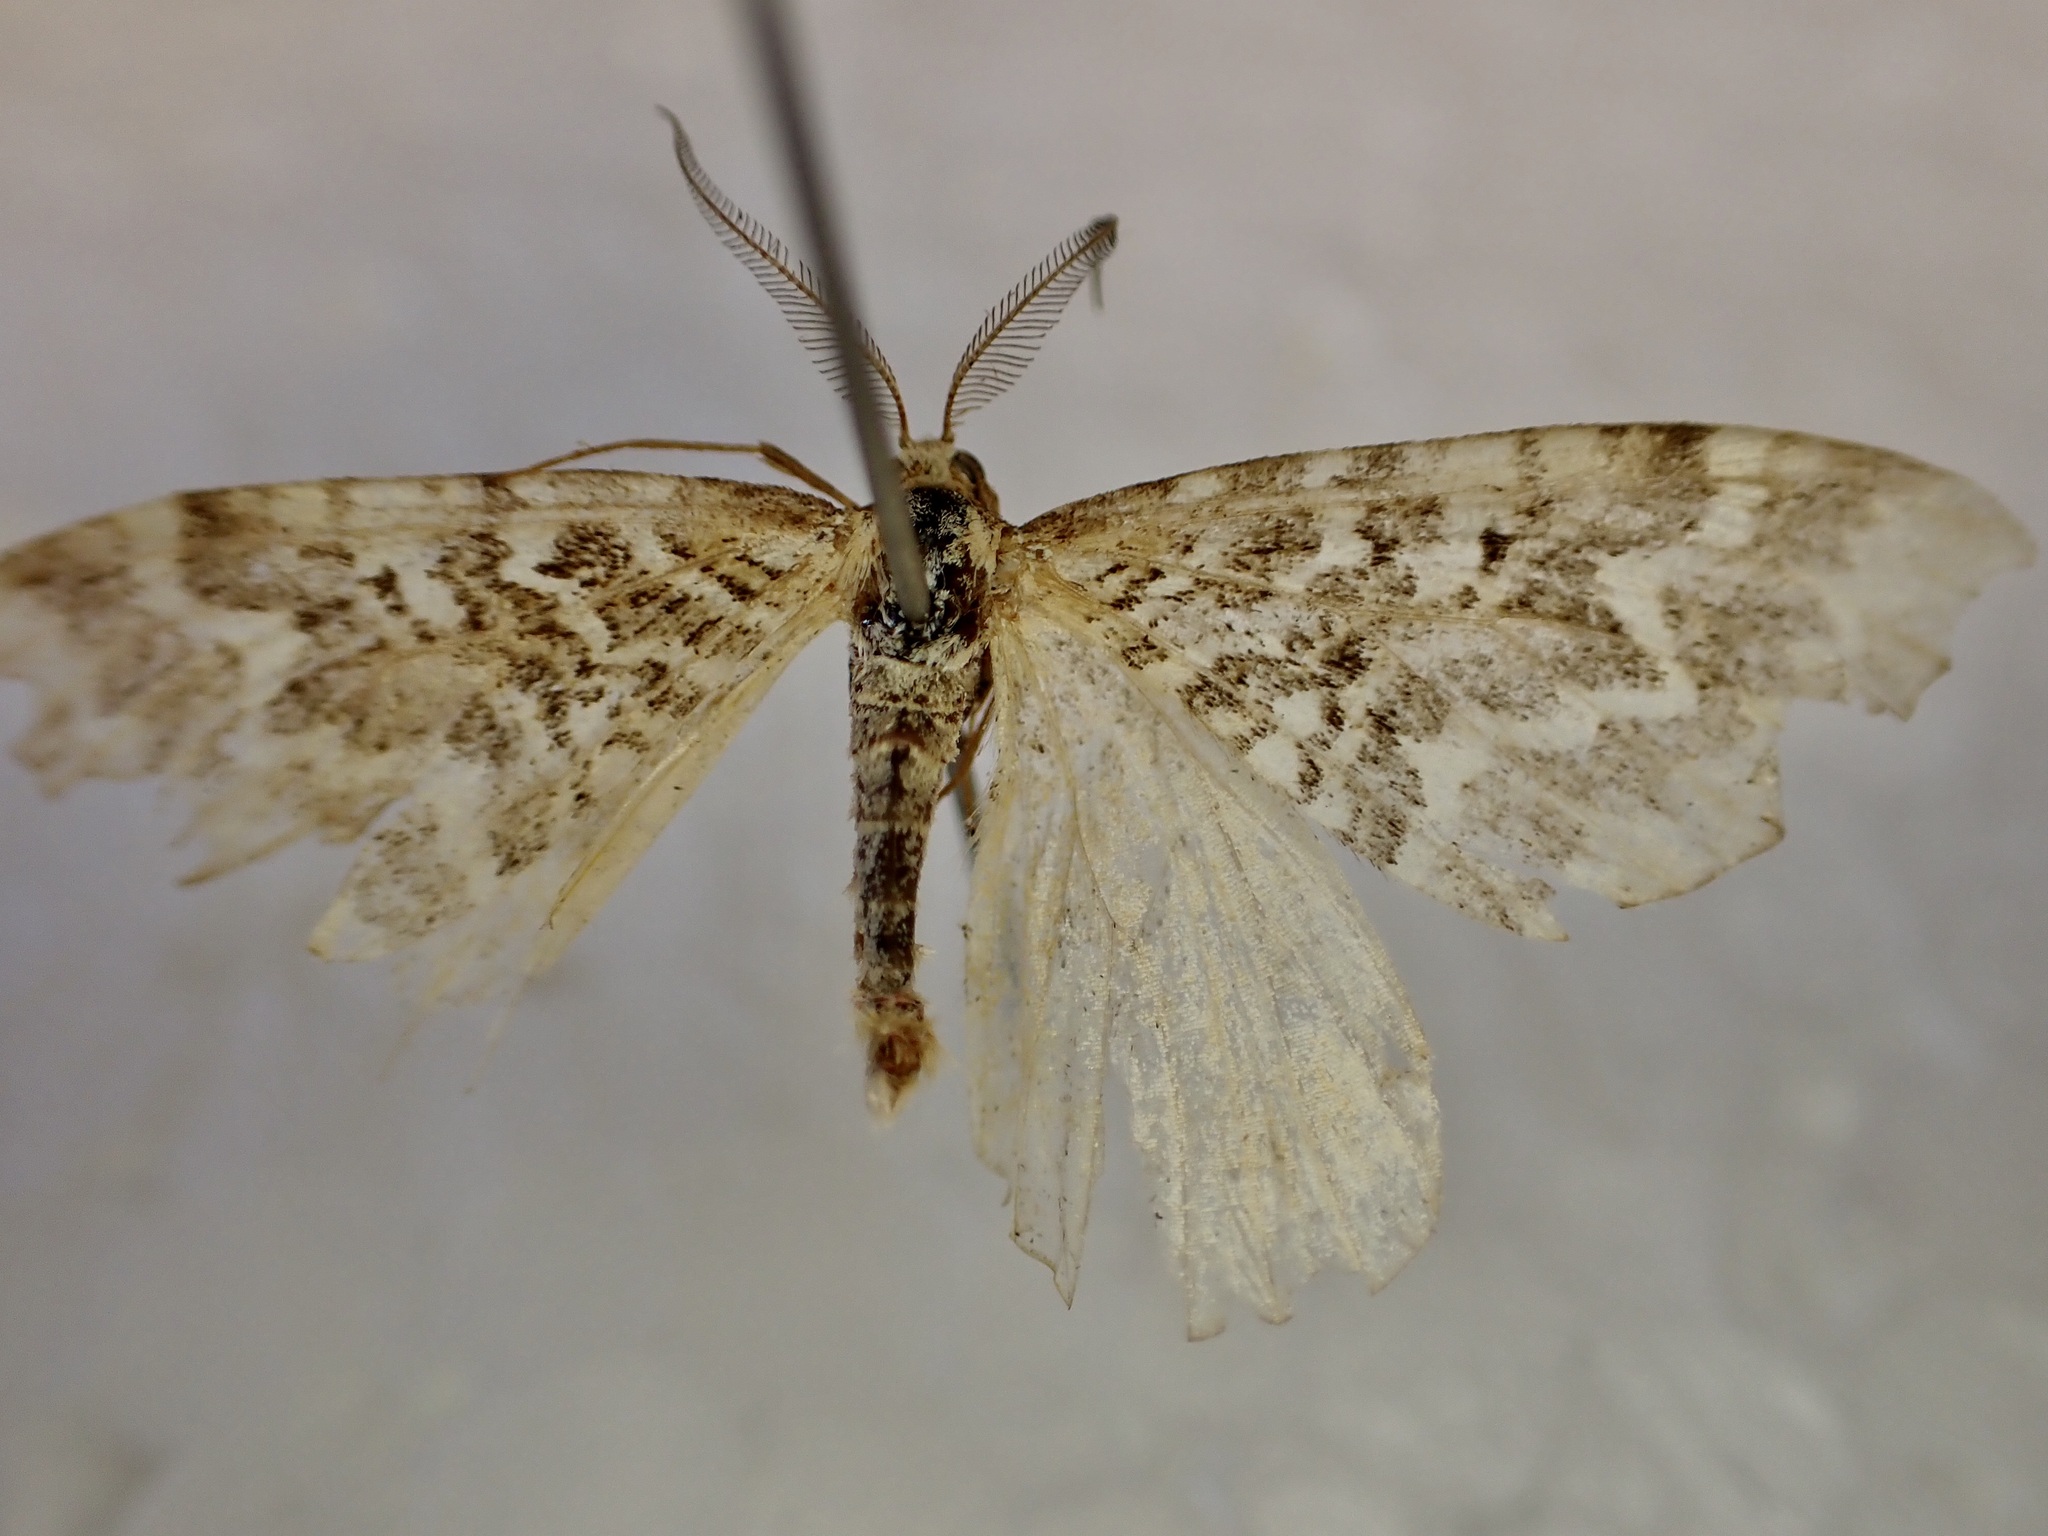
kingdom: Animalia
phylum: Arthropoda
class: Insecta
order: Lepidoptera
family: Geometridae
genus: Asaphodes
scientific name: Asaphodes clarata
